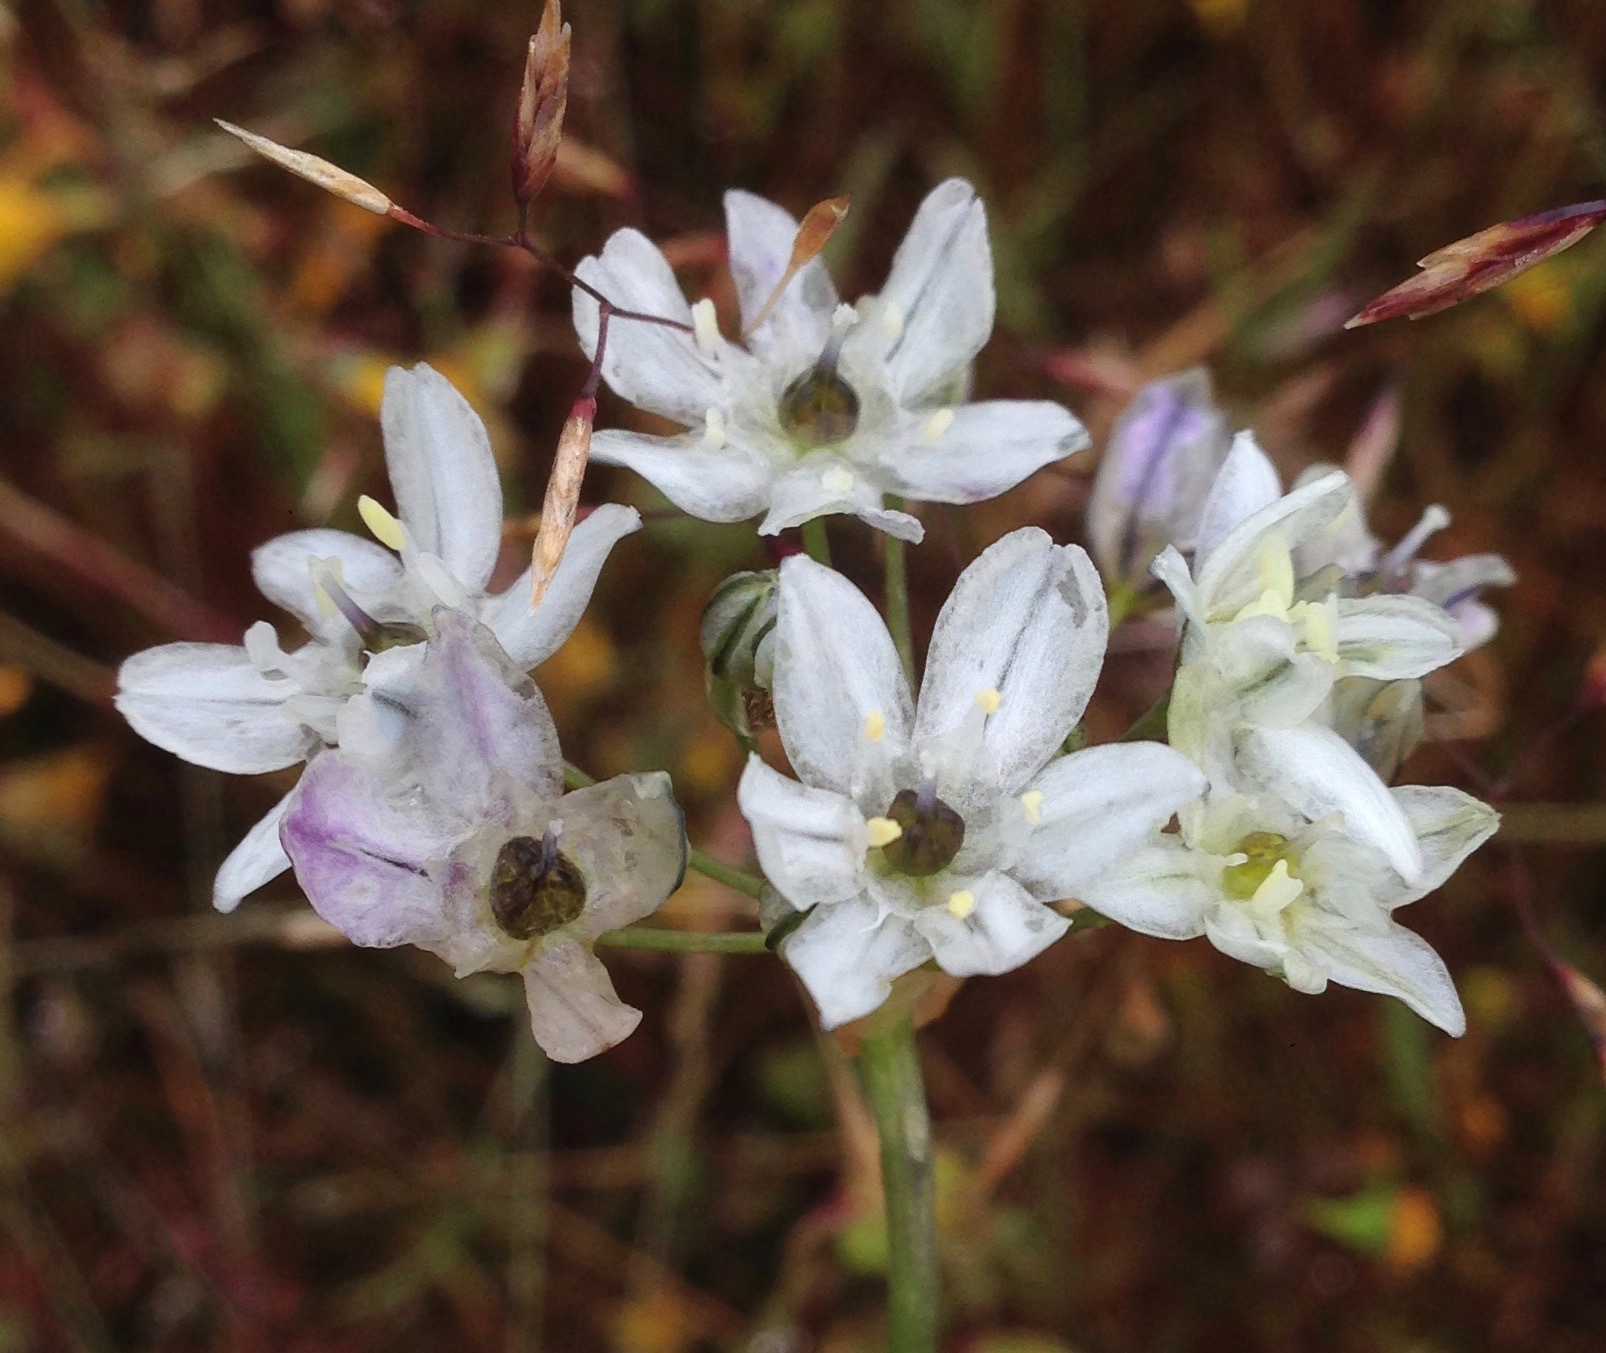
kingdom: Plantae
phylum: Tracheophyta
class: Liliopsida
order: Asparagales
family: Asparagaceae
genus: Triteleia
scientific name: Triteleia hyacinthina
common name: White brodiaea
